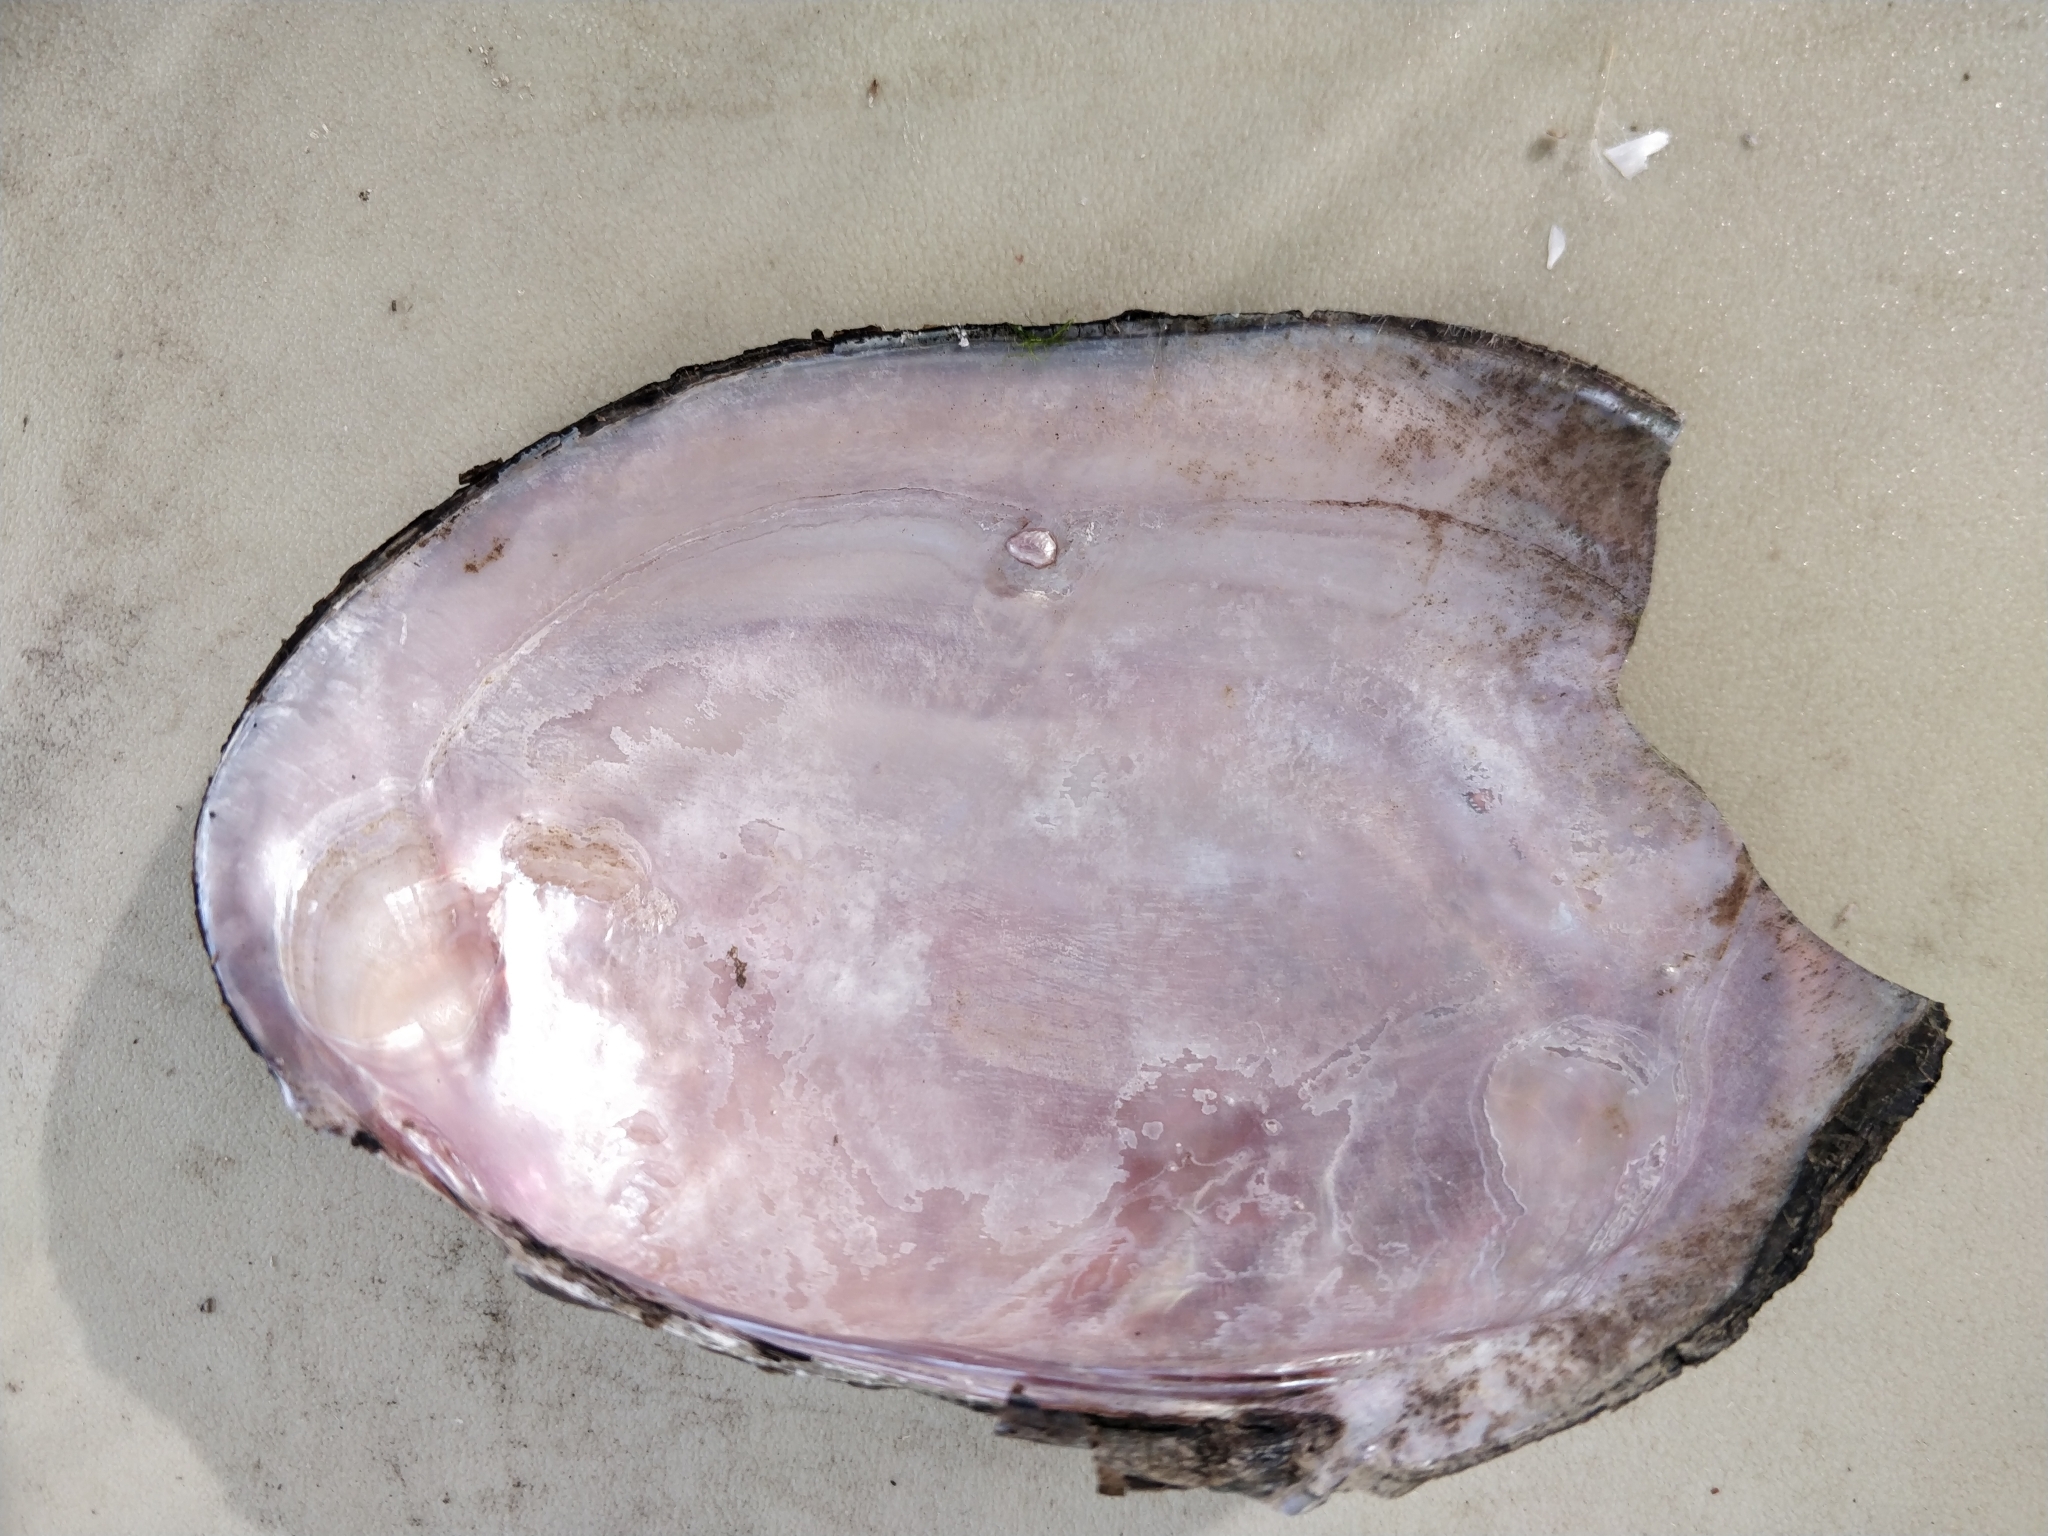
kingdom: Animalia
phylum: Mollusca
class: Bivalvia
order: Unionida
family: Unionidae
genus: Potamilus
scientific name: Potamilus ohiensis
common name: Pink papershell
